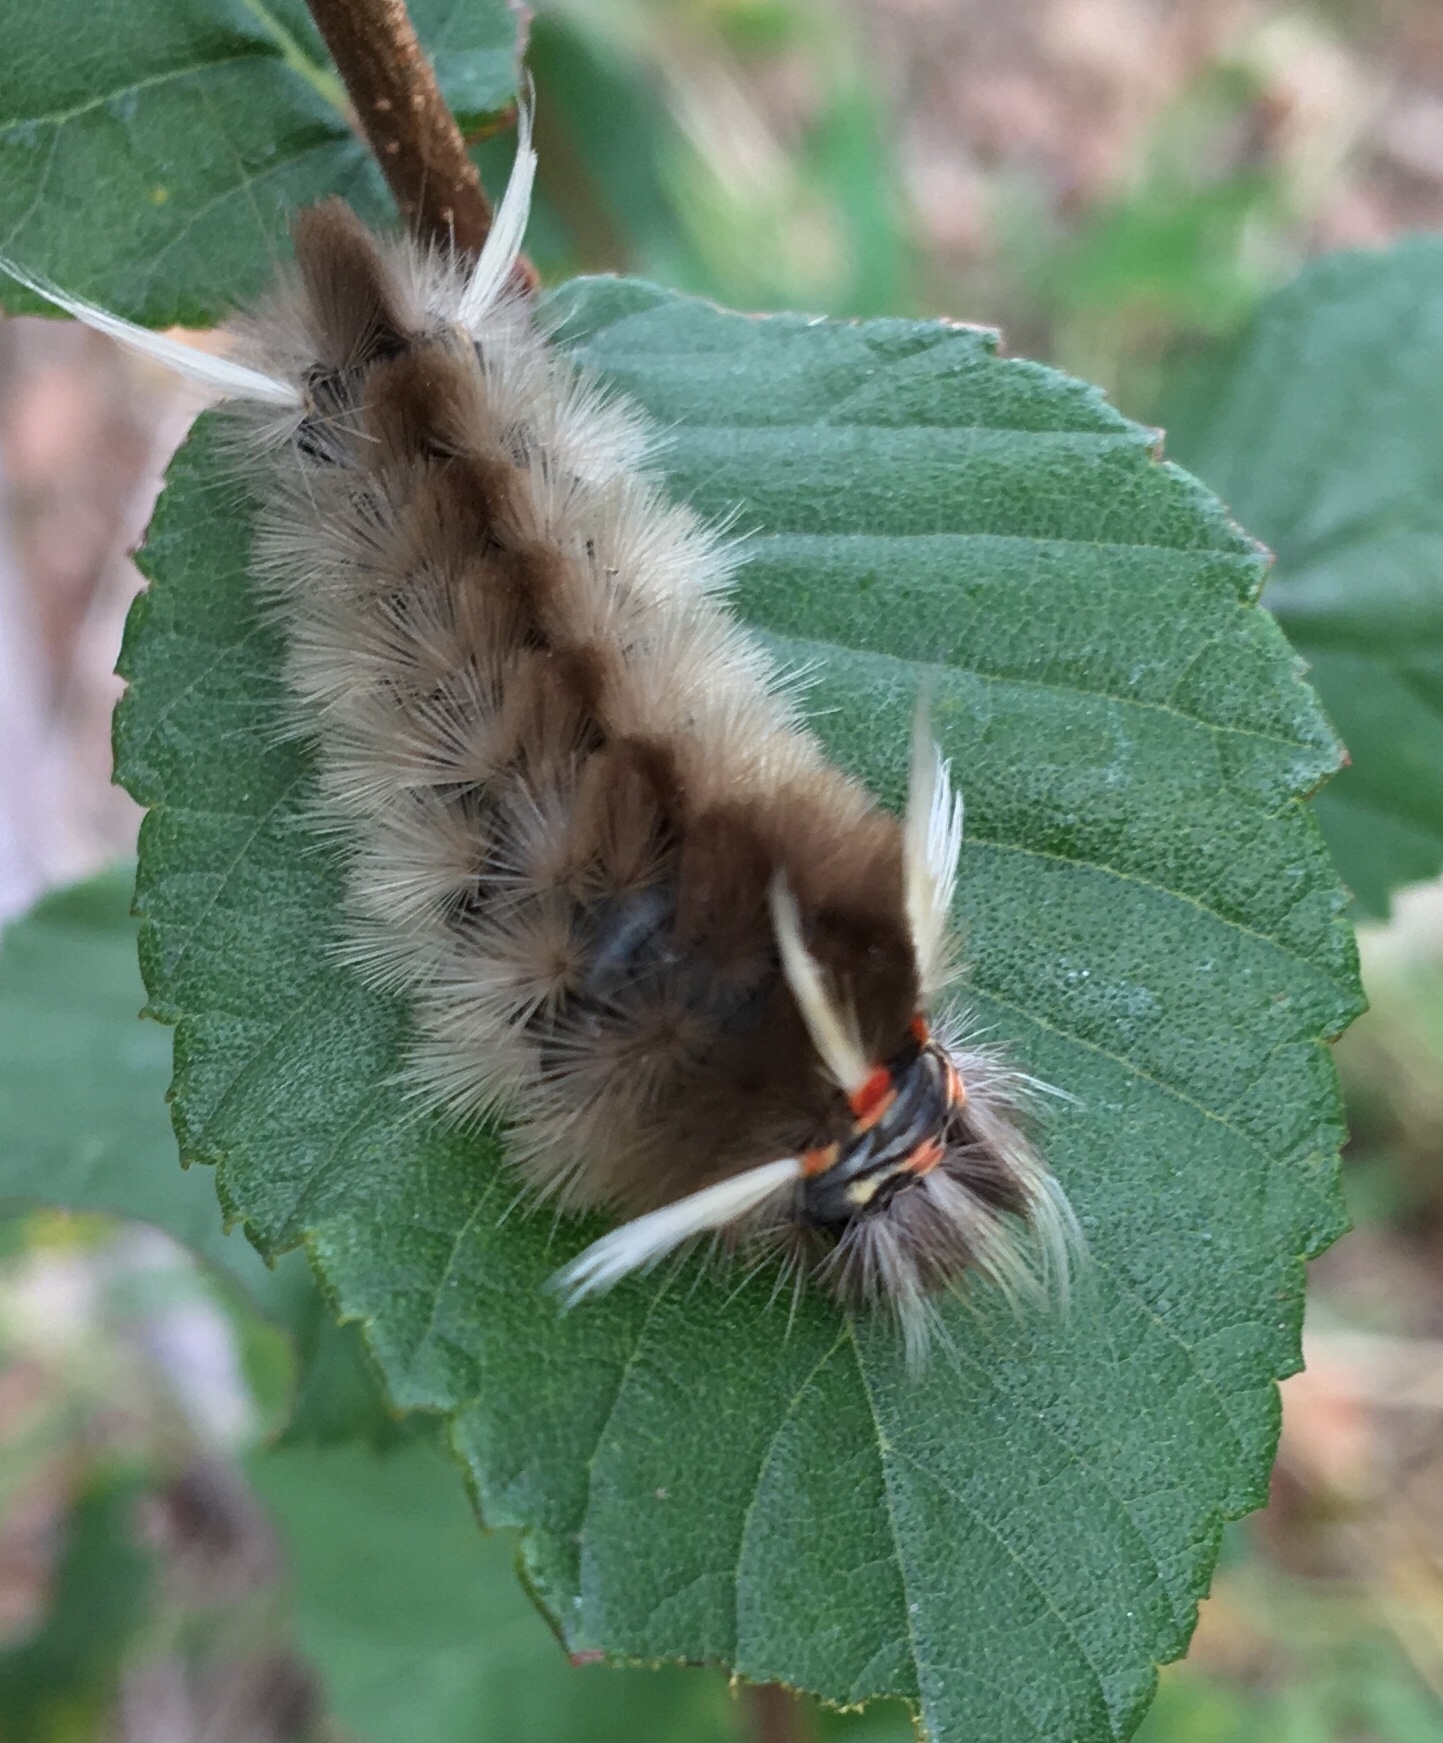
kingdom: Animalia
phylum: Arthropoda
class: Insecta
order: Lepidoptera
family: Erebidae
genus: Halysidota
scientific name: Halysidota schausi
